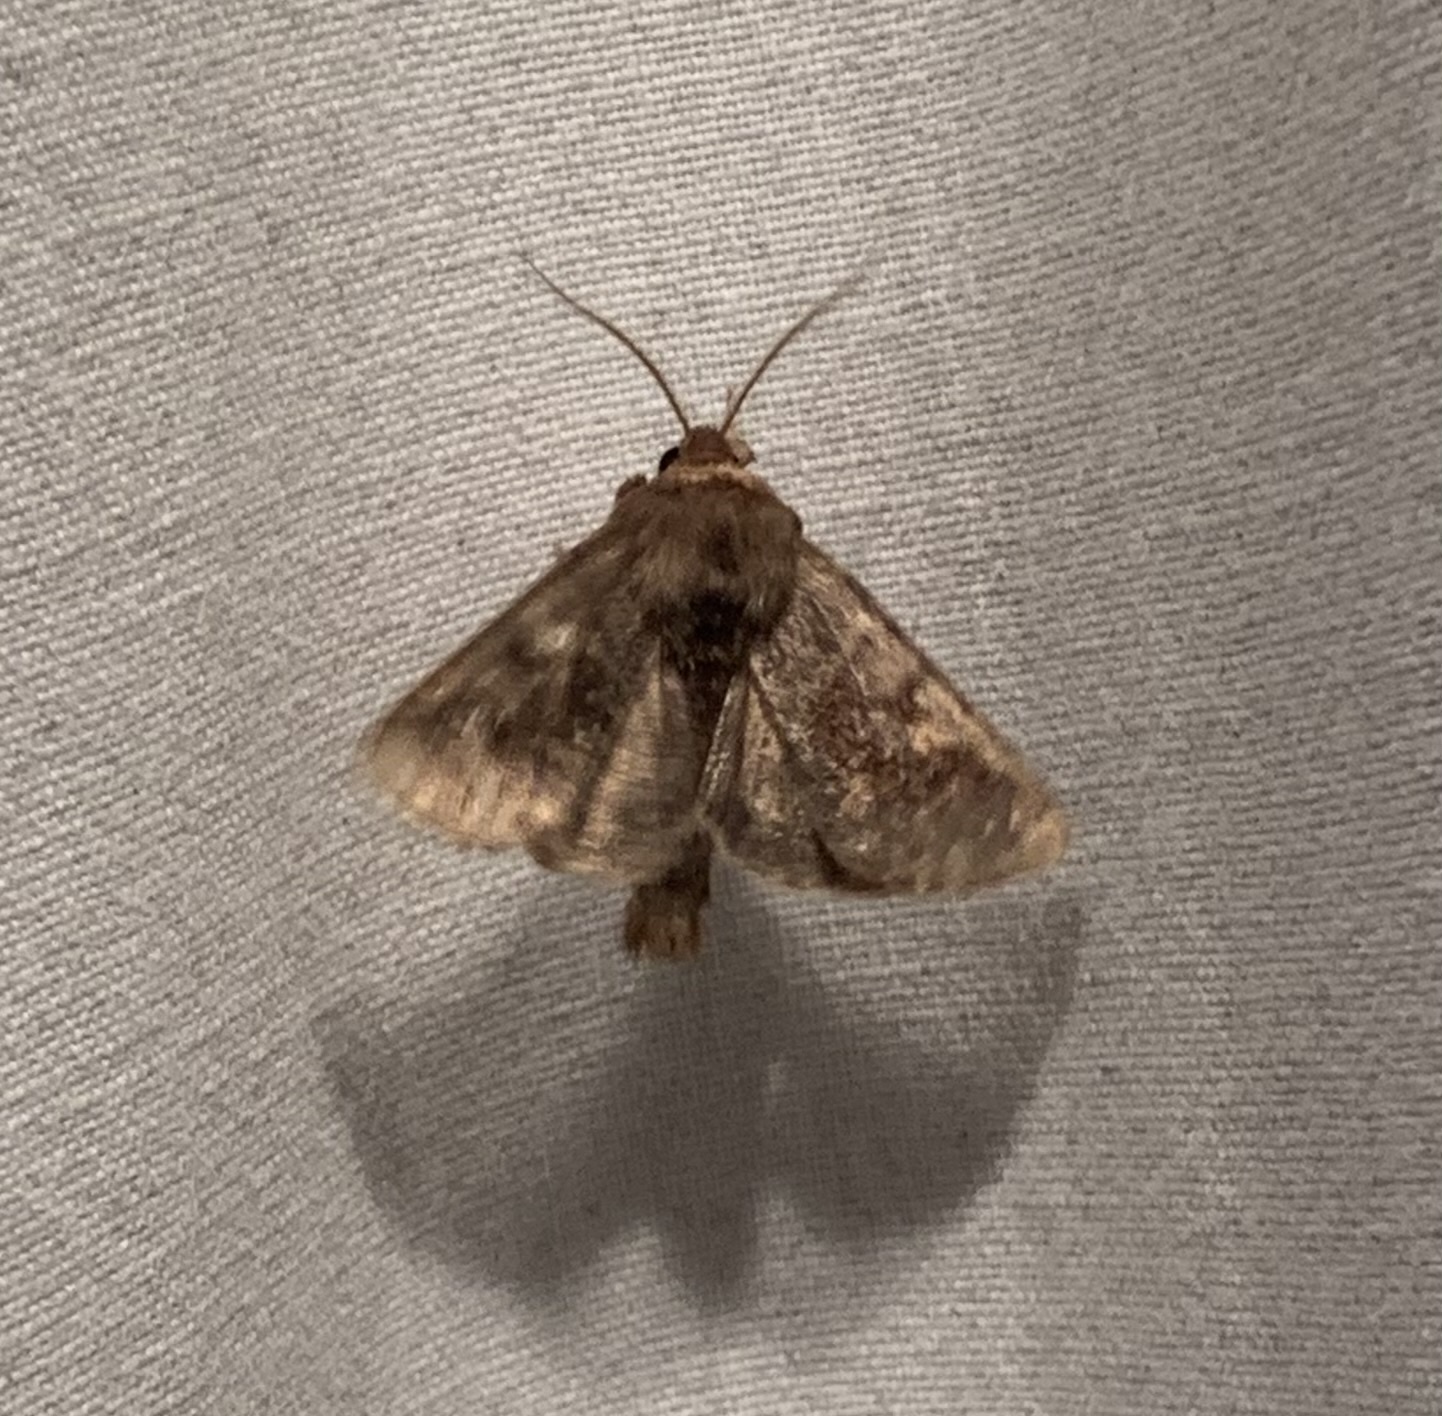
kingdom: Animalia
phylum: Arthropoda
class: Insecta
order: Lepidoptera
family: Noctuidae
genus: Nephelodes
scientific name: Nephelodes minians
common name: Bronzed cutworm
